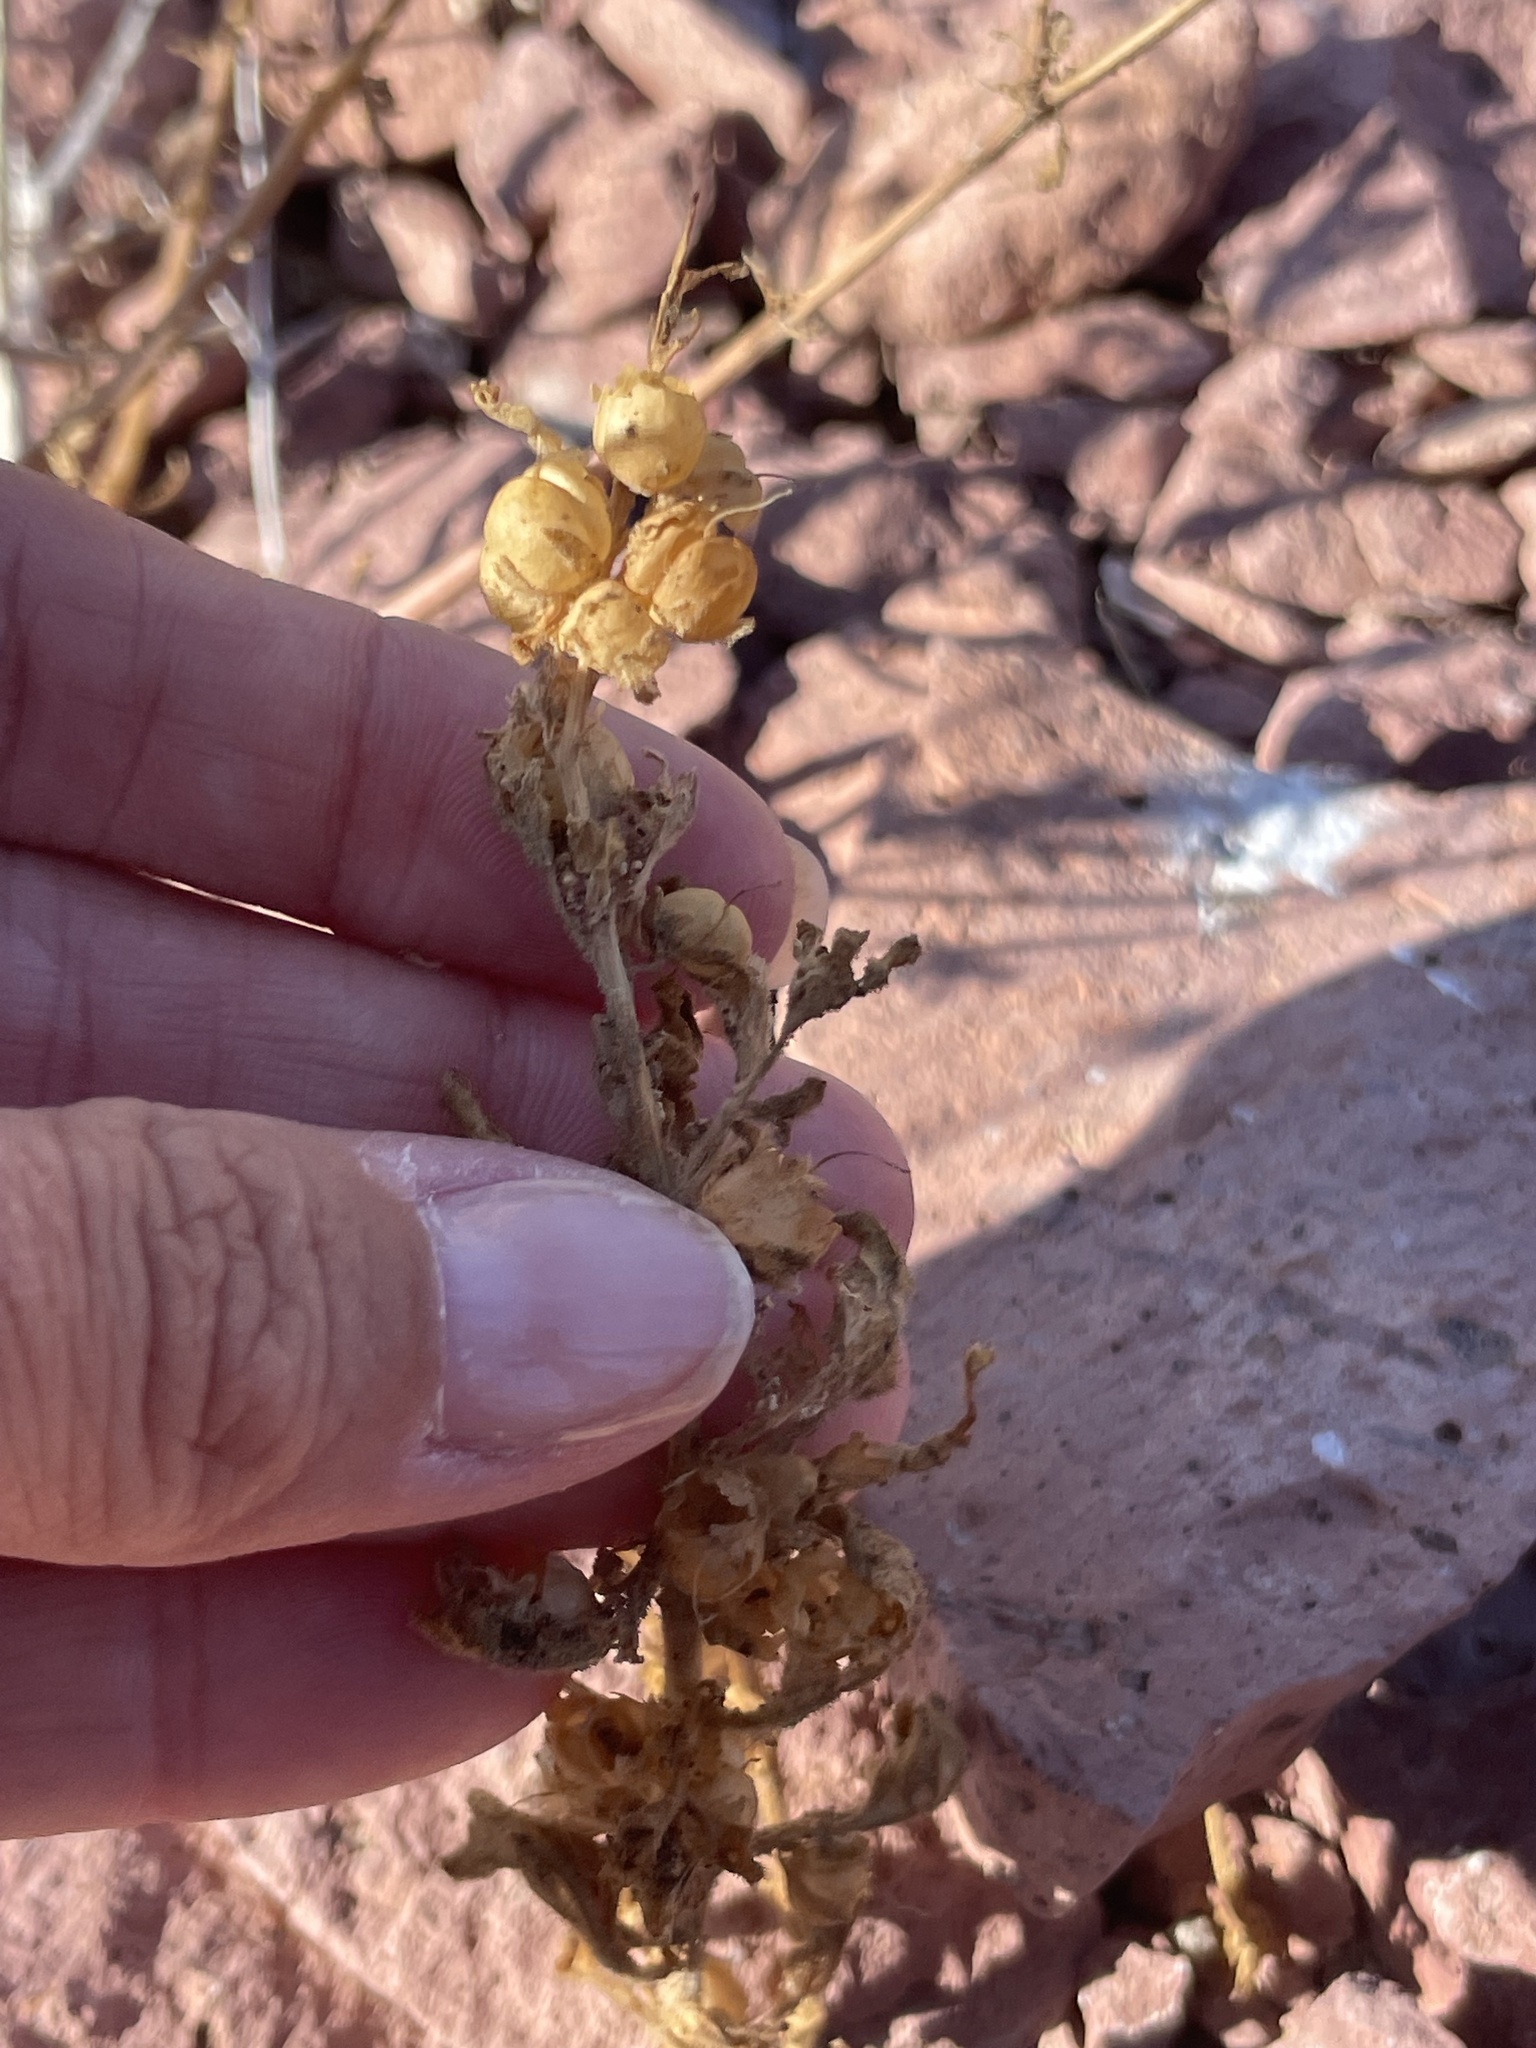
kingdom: Plantae
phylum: Tracheophyta
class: Magnoliopsida
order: Lamiales
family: Plantaginaceae
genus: Pseudorontium
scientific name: Pseudorontium cyathiferum
